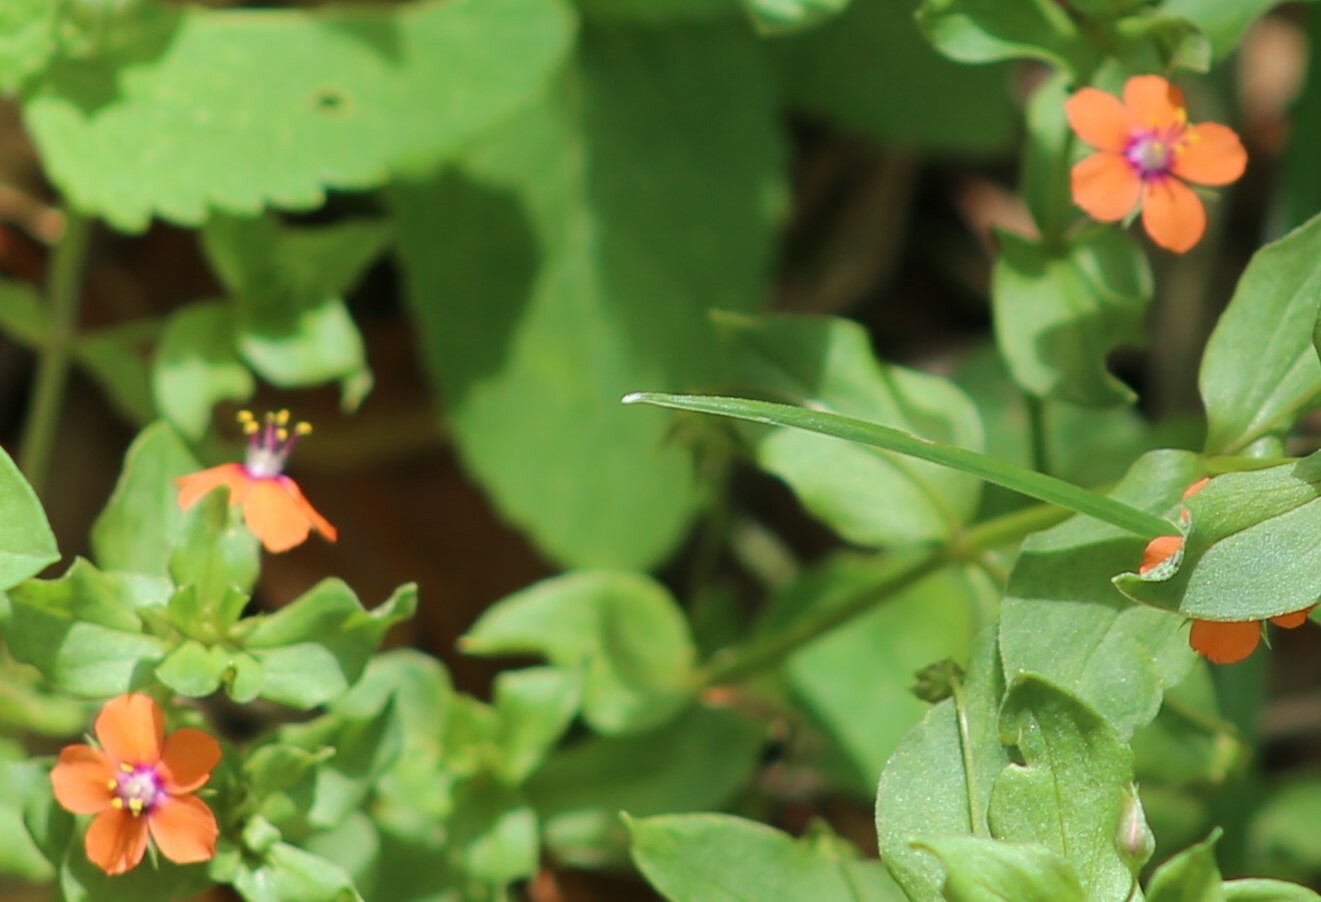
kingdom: Plantae
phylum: Tracheophyta
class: Magnoliopsida
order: Ericales
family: Primulaceae
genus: Lysimachia
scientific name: Lysimachia arvensis
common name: Scarlet pimpernel
